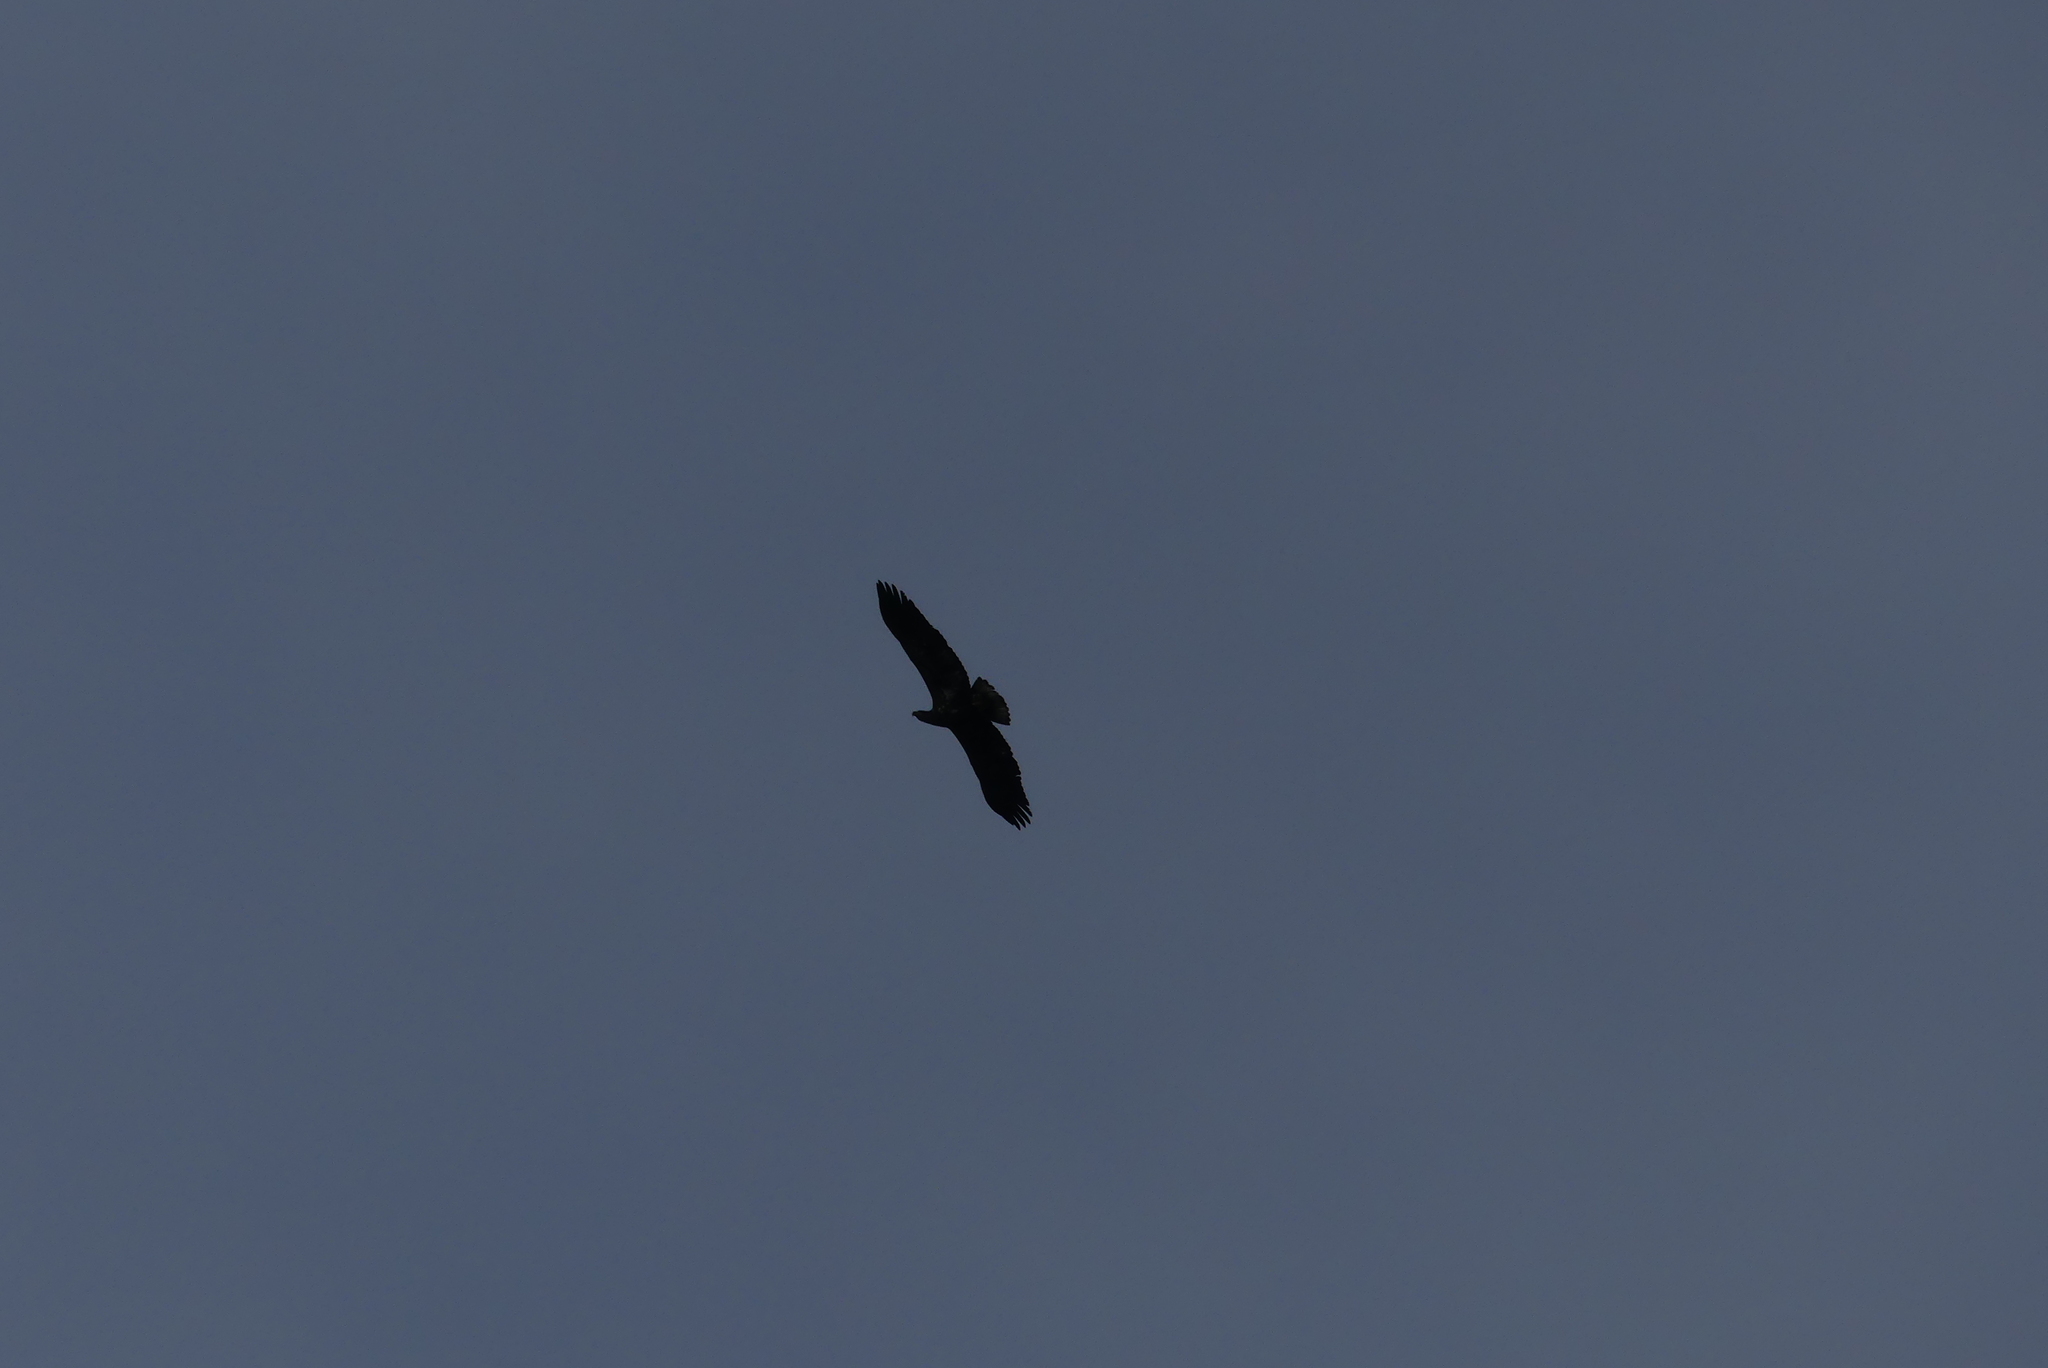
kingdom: Animalia
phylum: Chordata
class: Aves
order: Accipitriformes
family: Accipitridae
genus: Haliaeetus
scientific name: Haliaeetus leucocephalus
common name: Bald eagle
